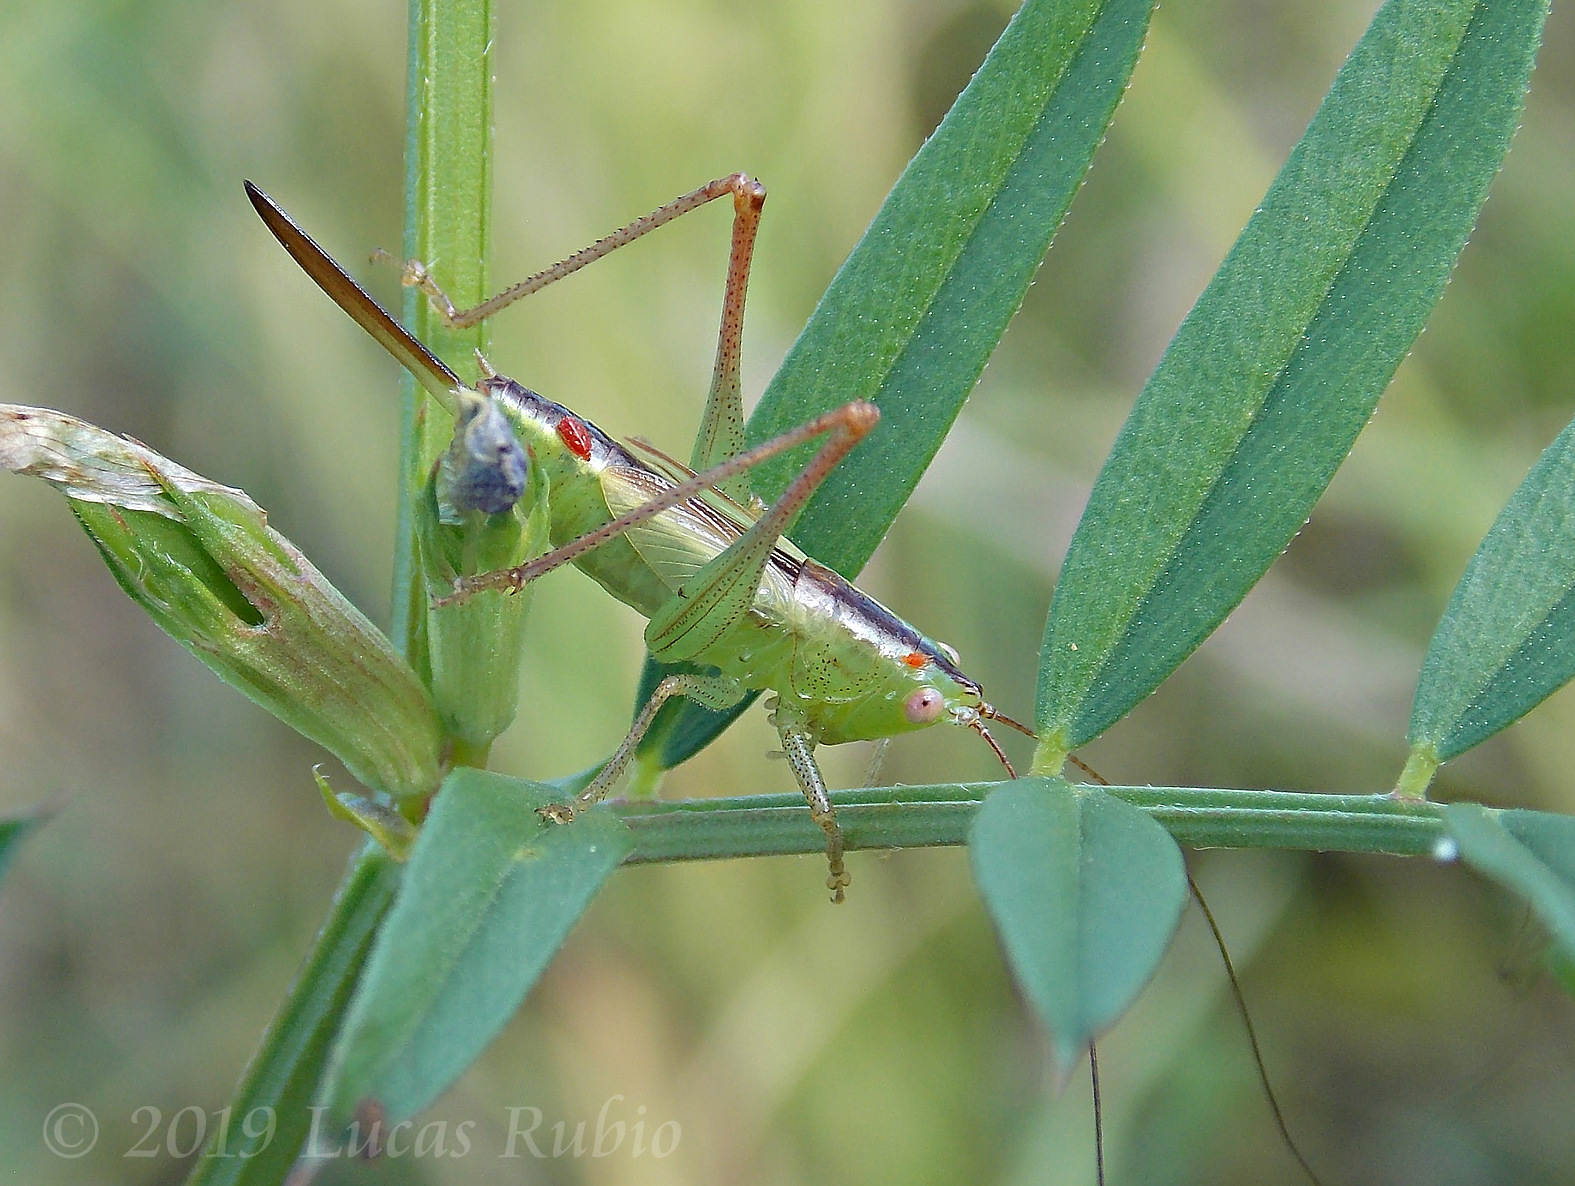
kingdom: Animalia
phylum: Arthropoda
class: Insecta
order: Orthoptera
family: Tettigoniidae
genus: Conocephalus
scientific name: Conocephalus longipes
